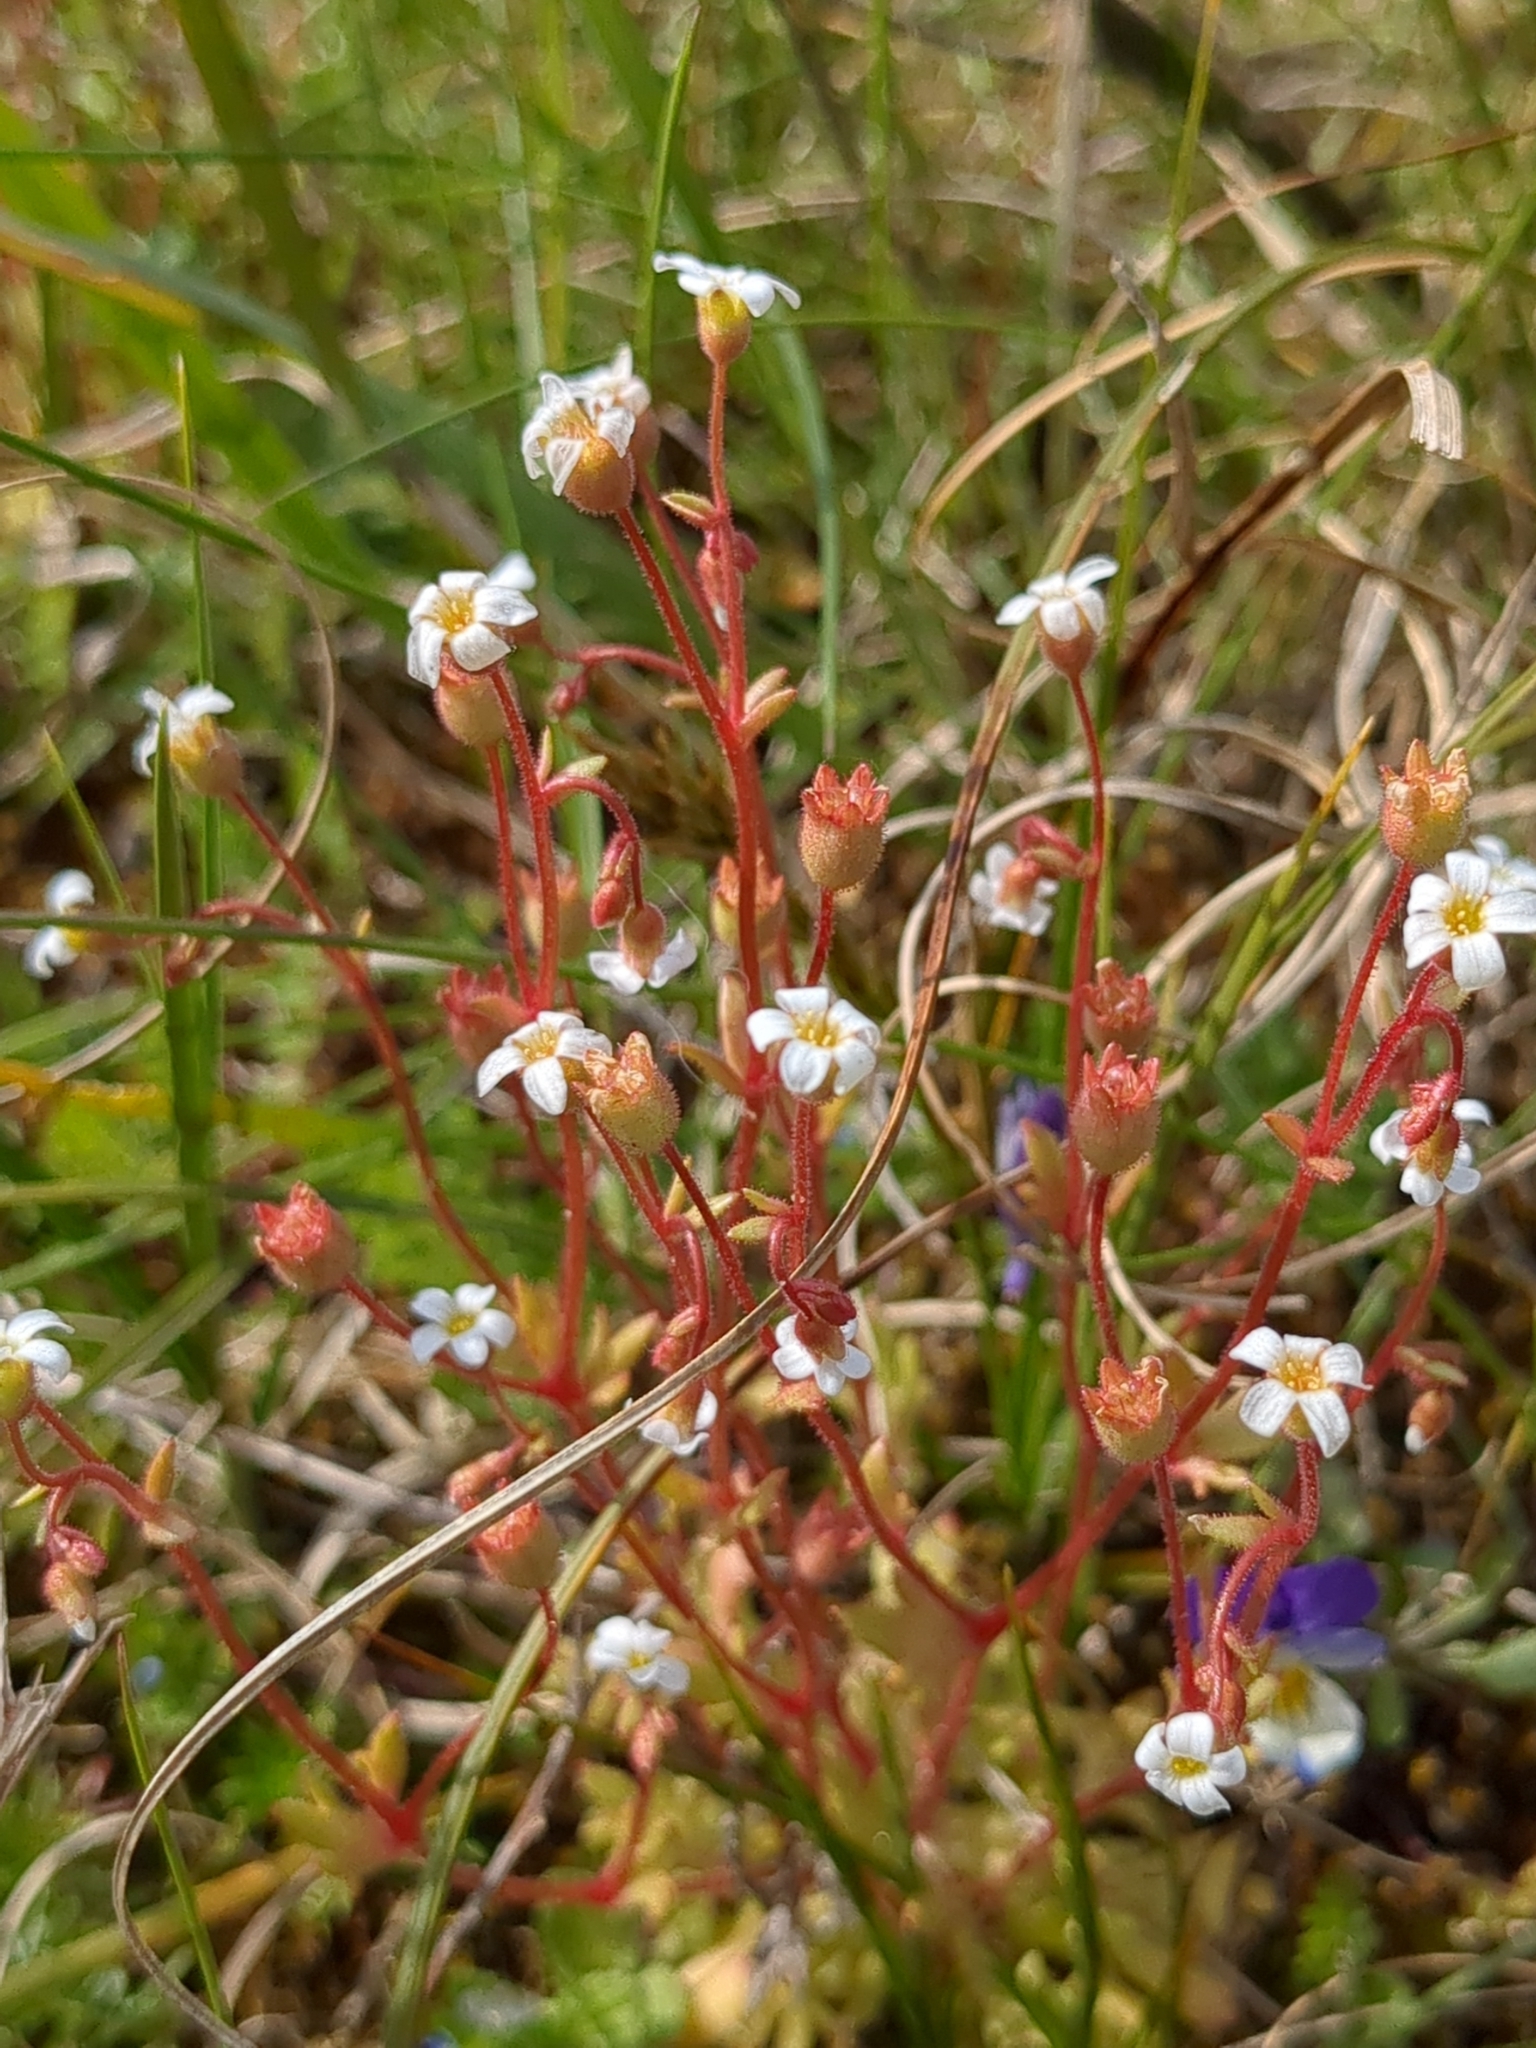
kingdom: Plantae
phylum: Tracheophyta
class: Magnoliopsida
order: Saxifragales
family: Saxifragaceae
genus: Saxifraga
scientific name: Saxifraga tridactylites
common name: Rue-leaved saxifrage
